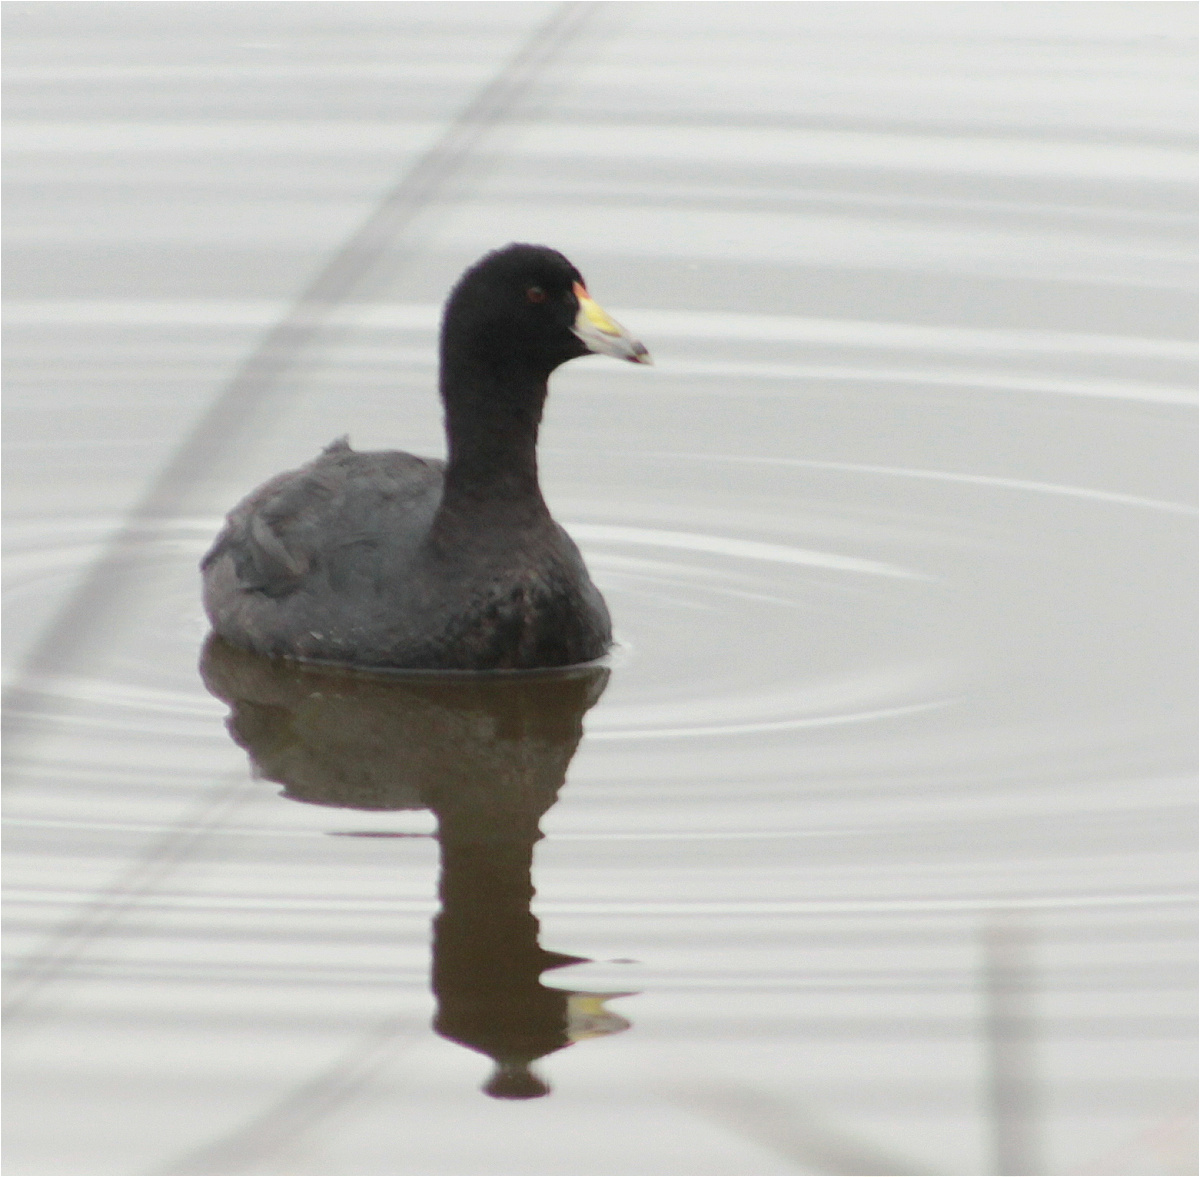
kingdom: Animalia
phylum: Chordata
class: Aves
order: Gruiformes
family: Rallidae
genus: Fulica
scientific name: Fulica americana
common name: American coot
